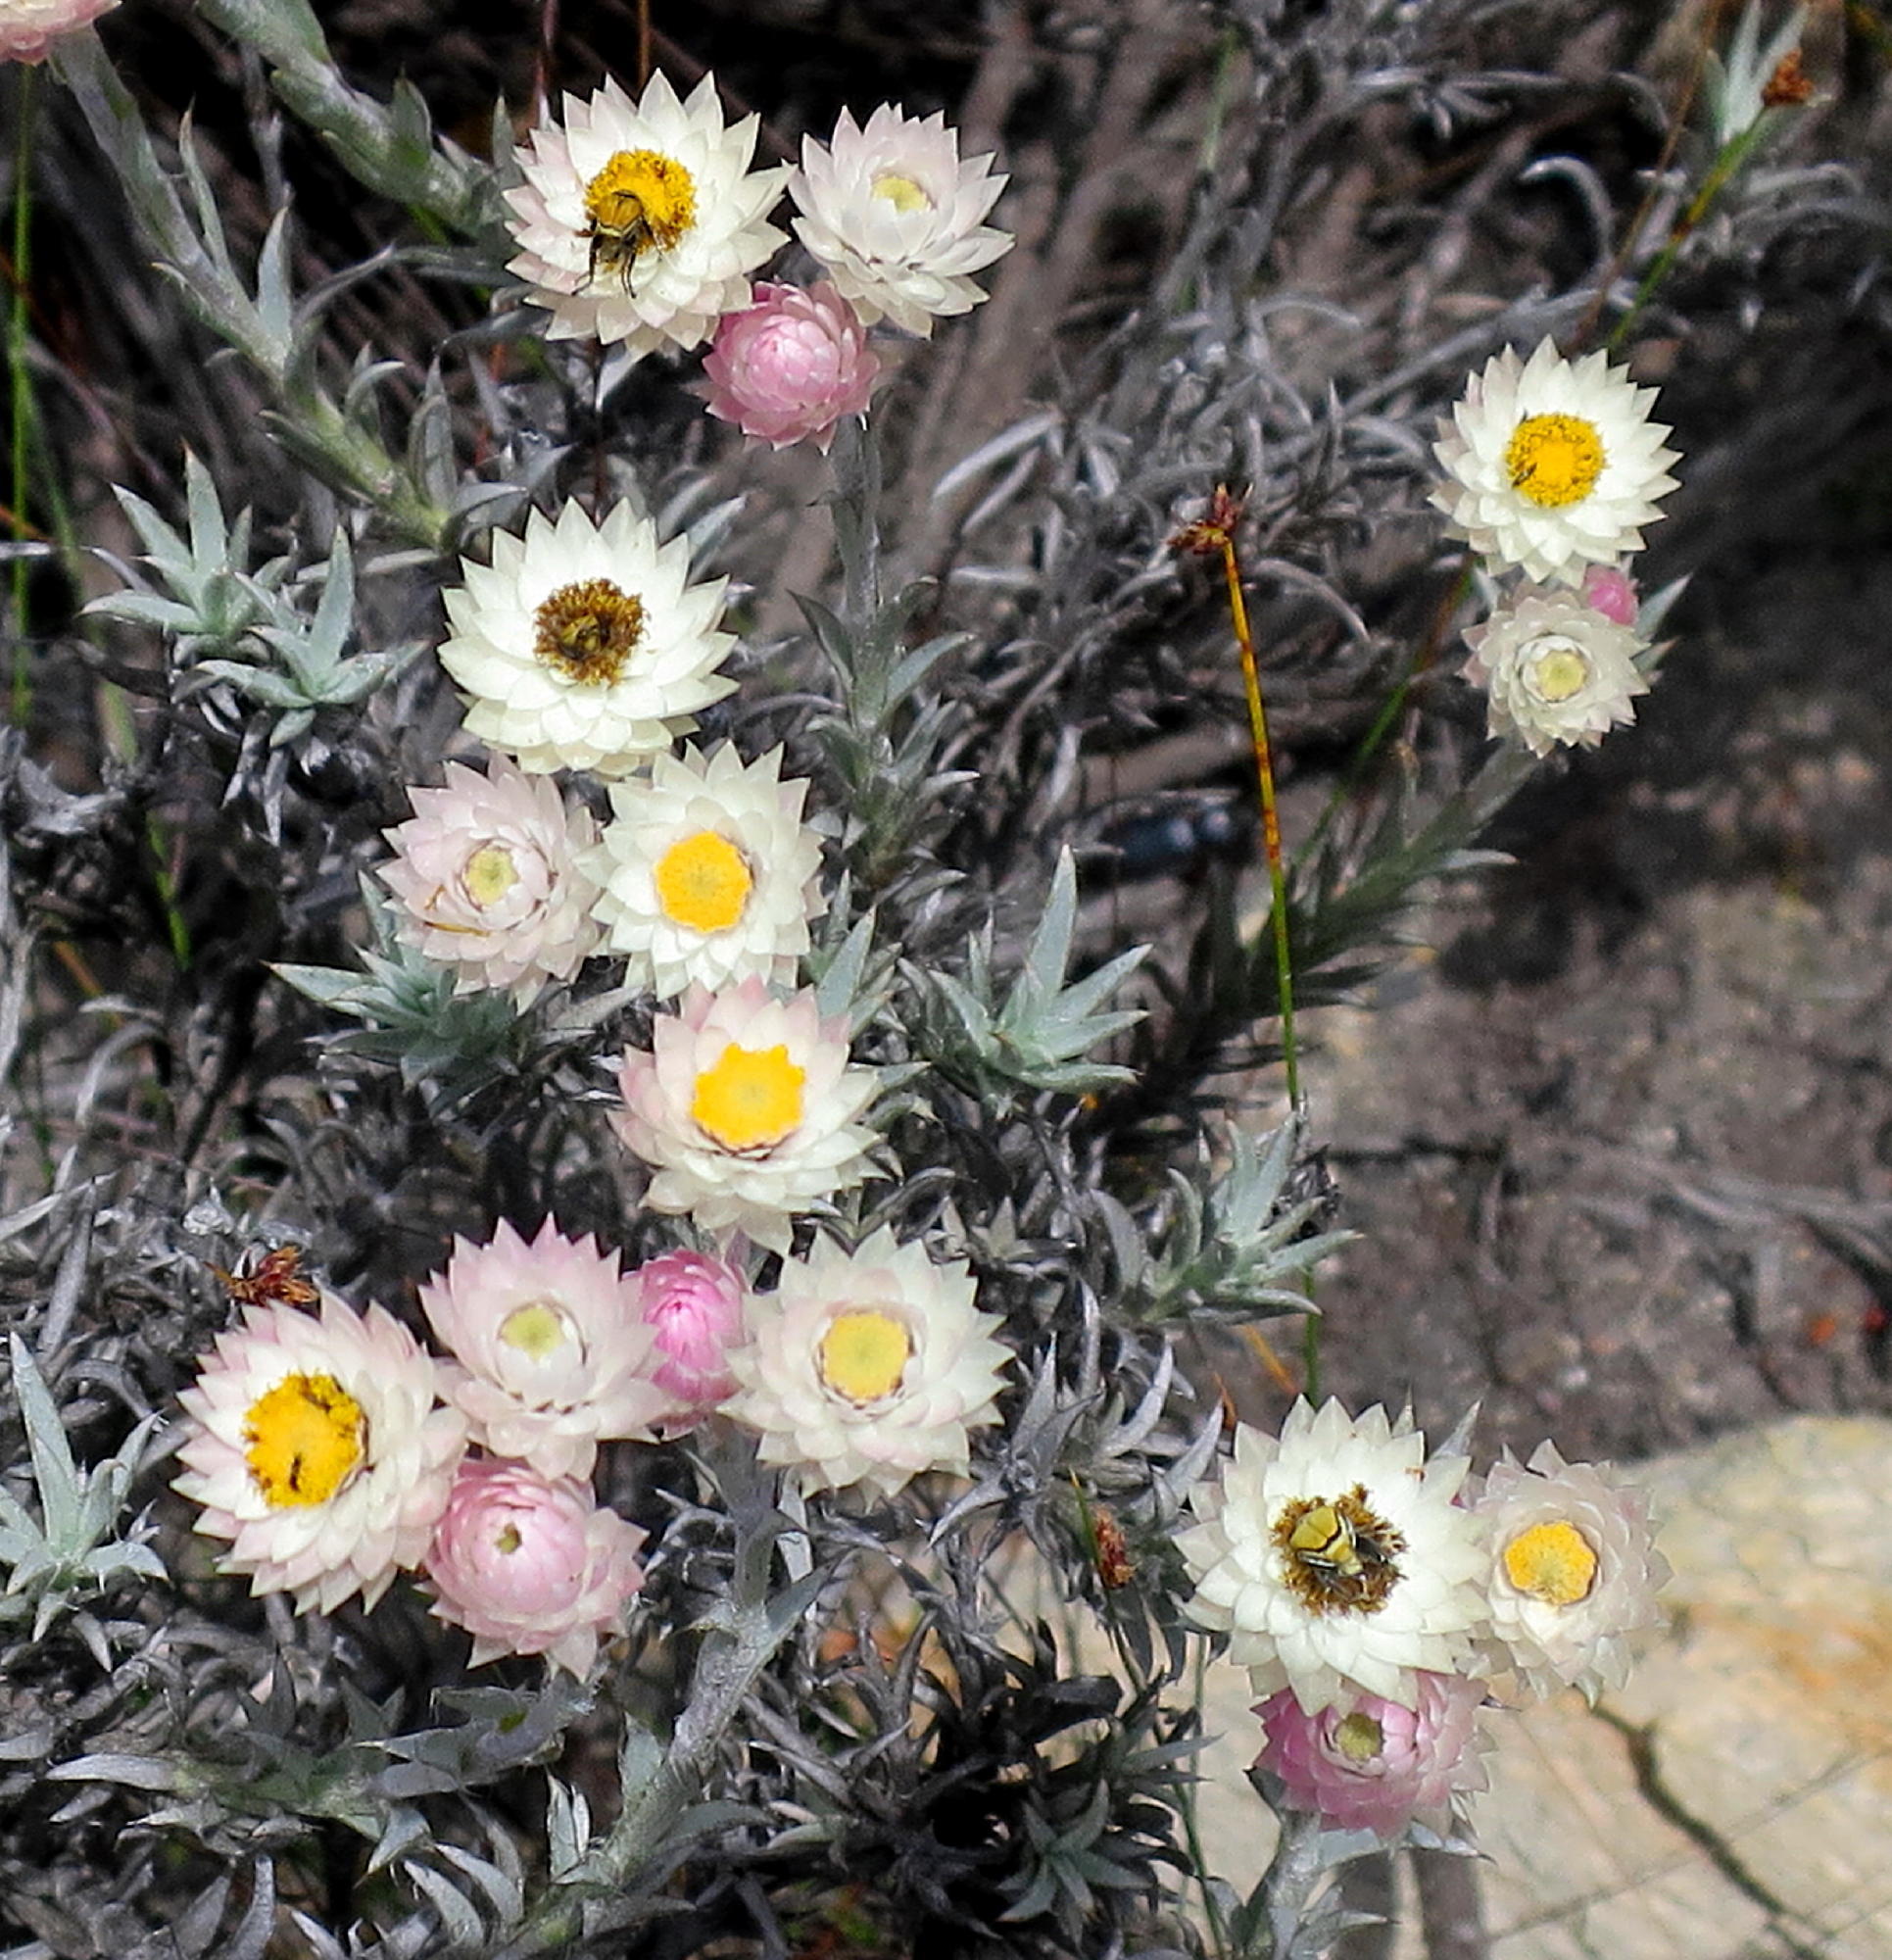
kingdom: Plantae
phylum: Tracheophyta
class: Magnoliopsida
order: Asterales
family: Asteraceae
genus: Syncarpha
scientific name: Syncarpha canescens
